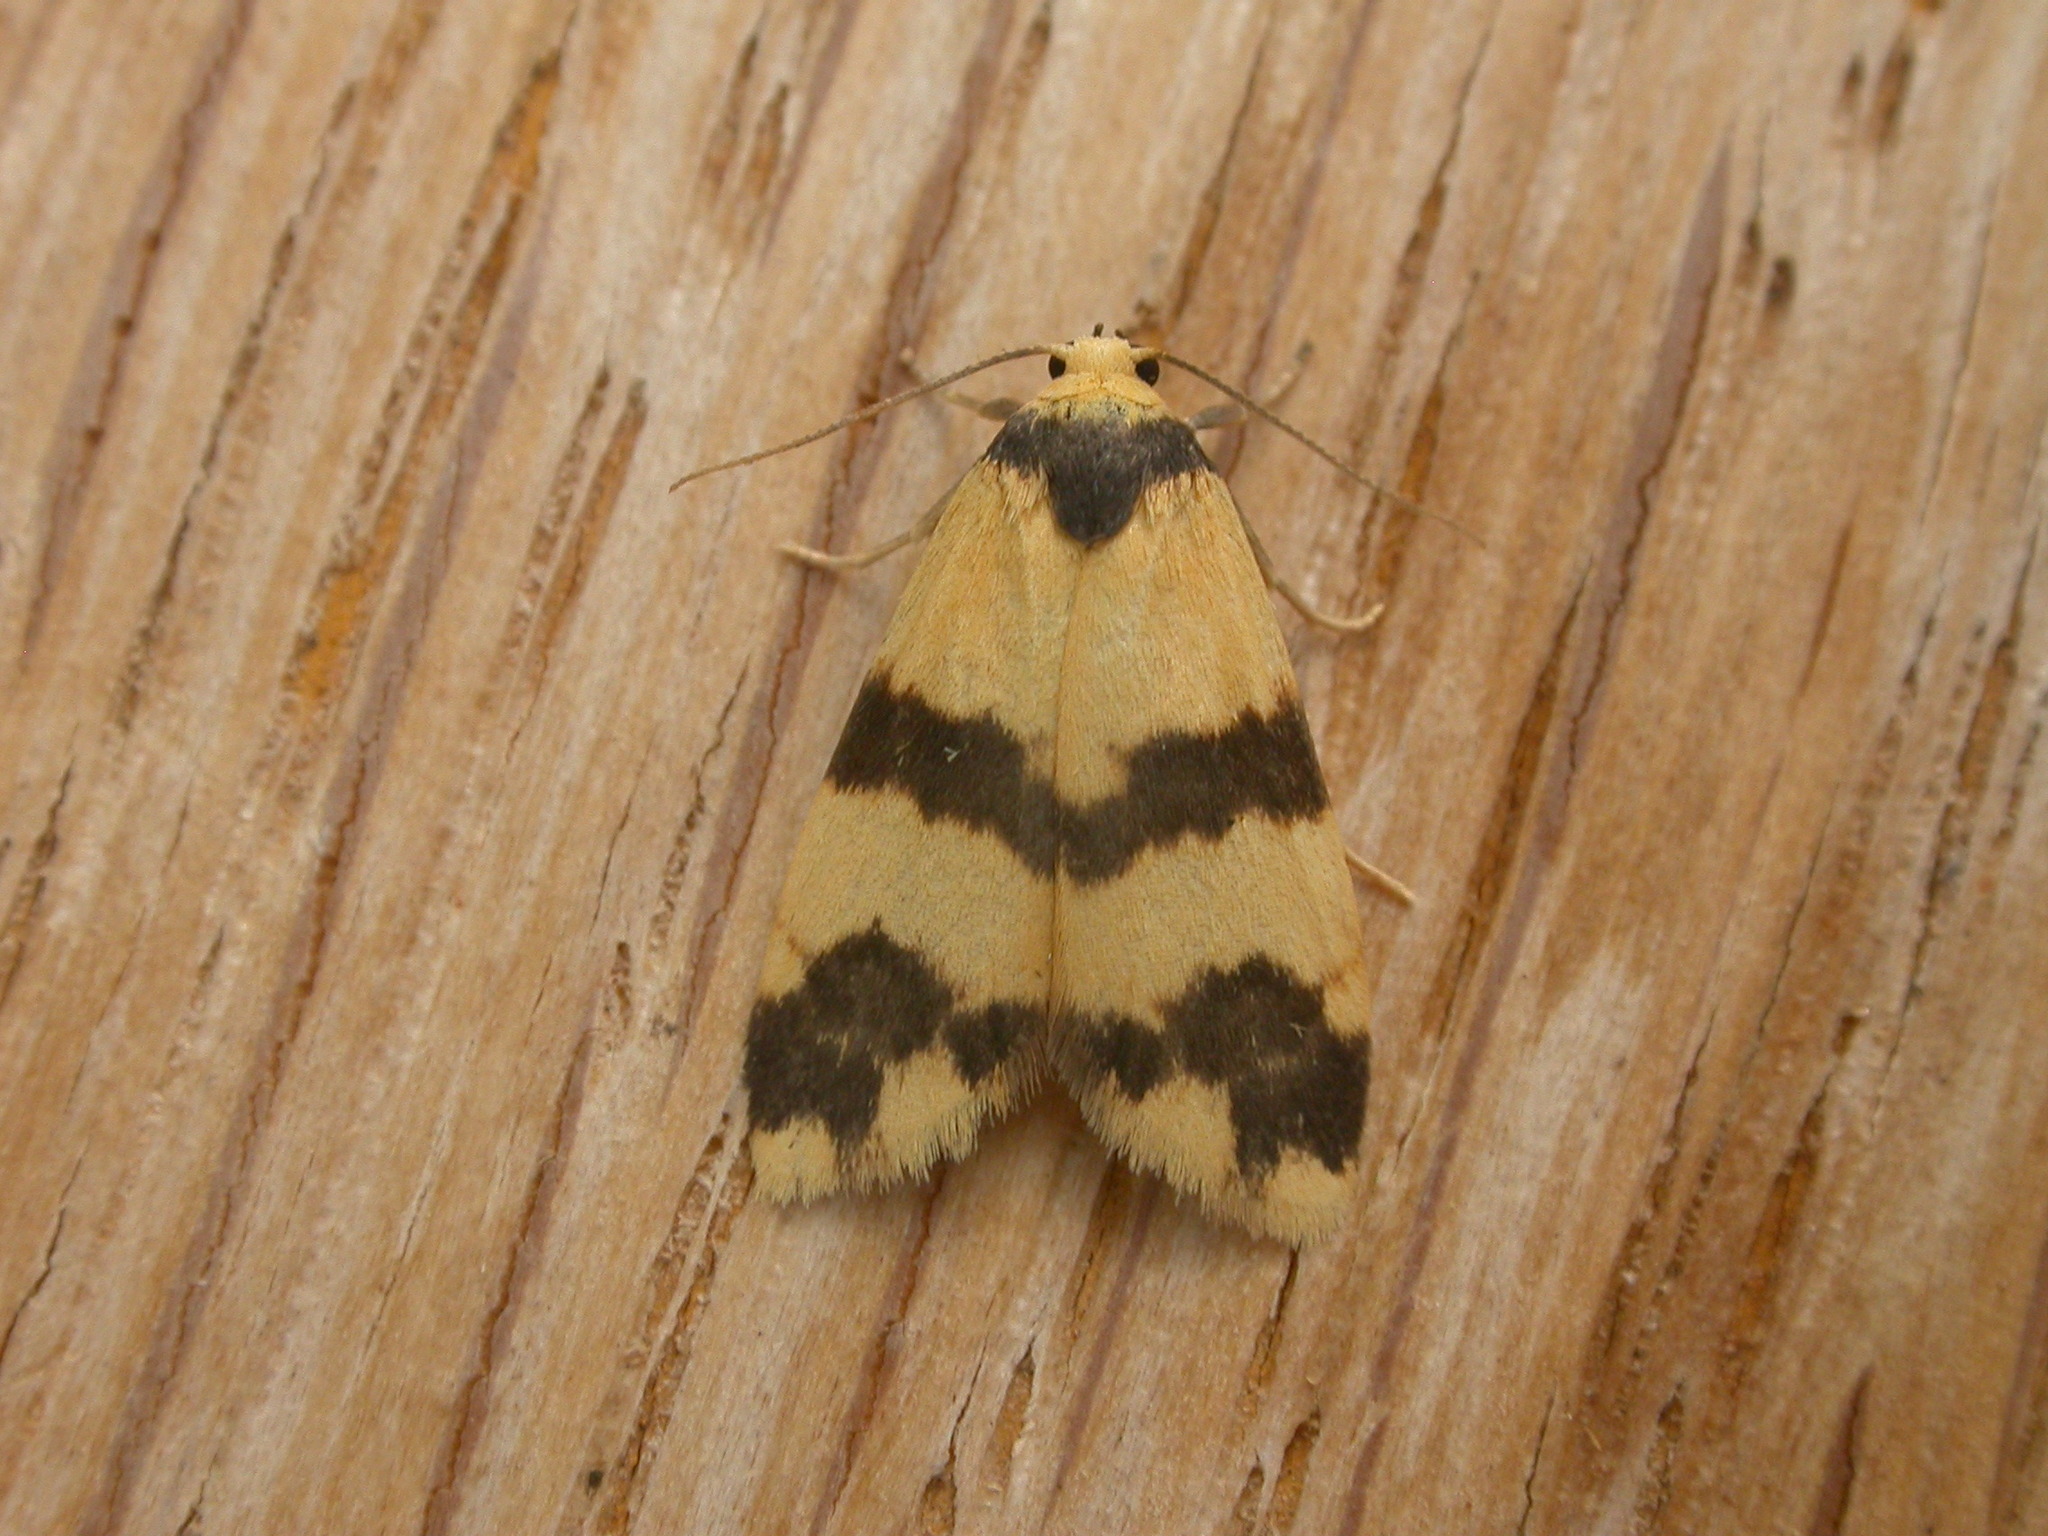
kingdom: Animalia
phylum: Arthropoda
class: Insecta
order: Lepidoptera
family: Erebidae
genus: Thallarcha
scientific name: Thallarcha chrysochares
